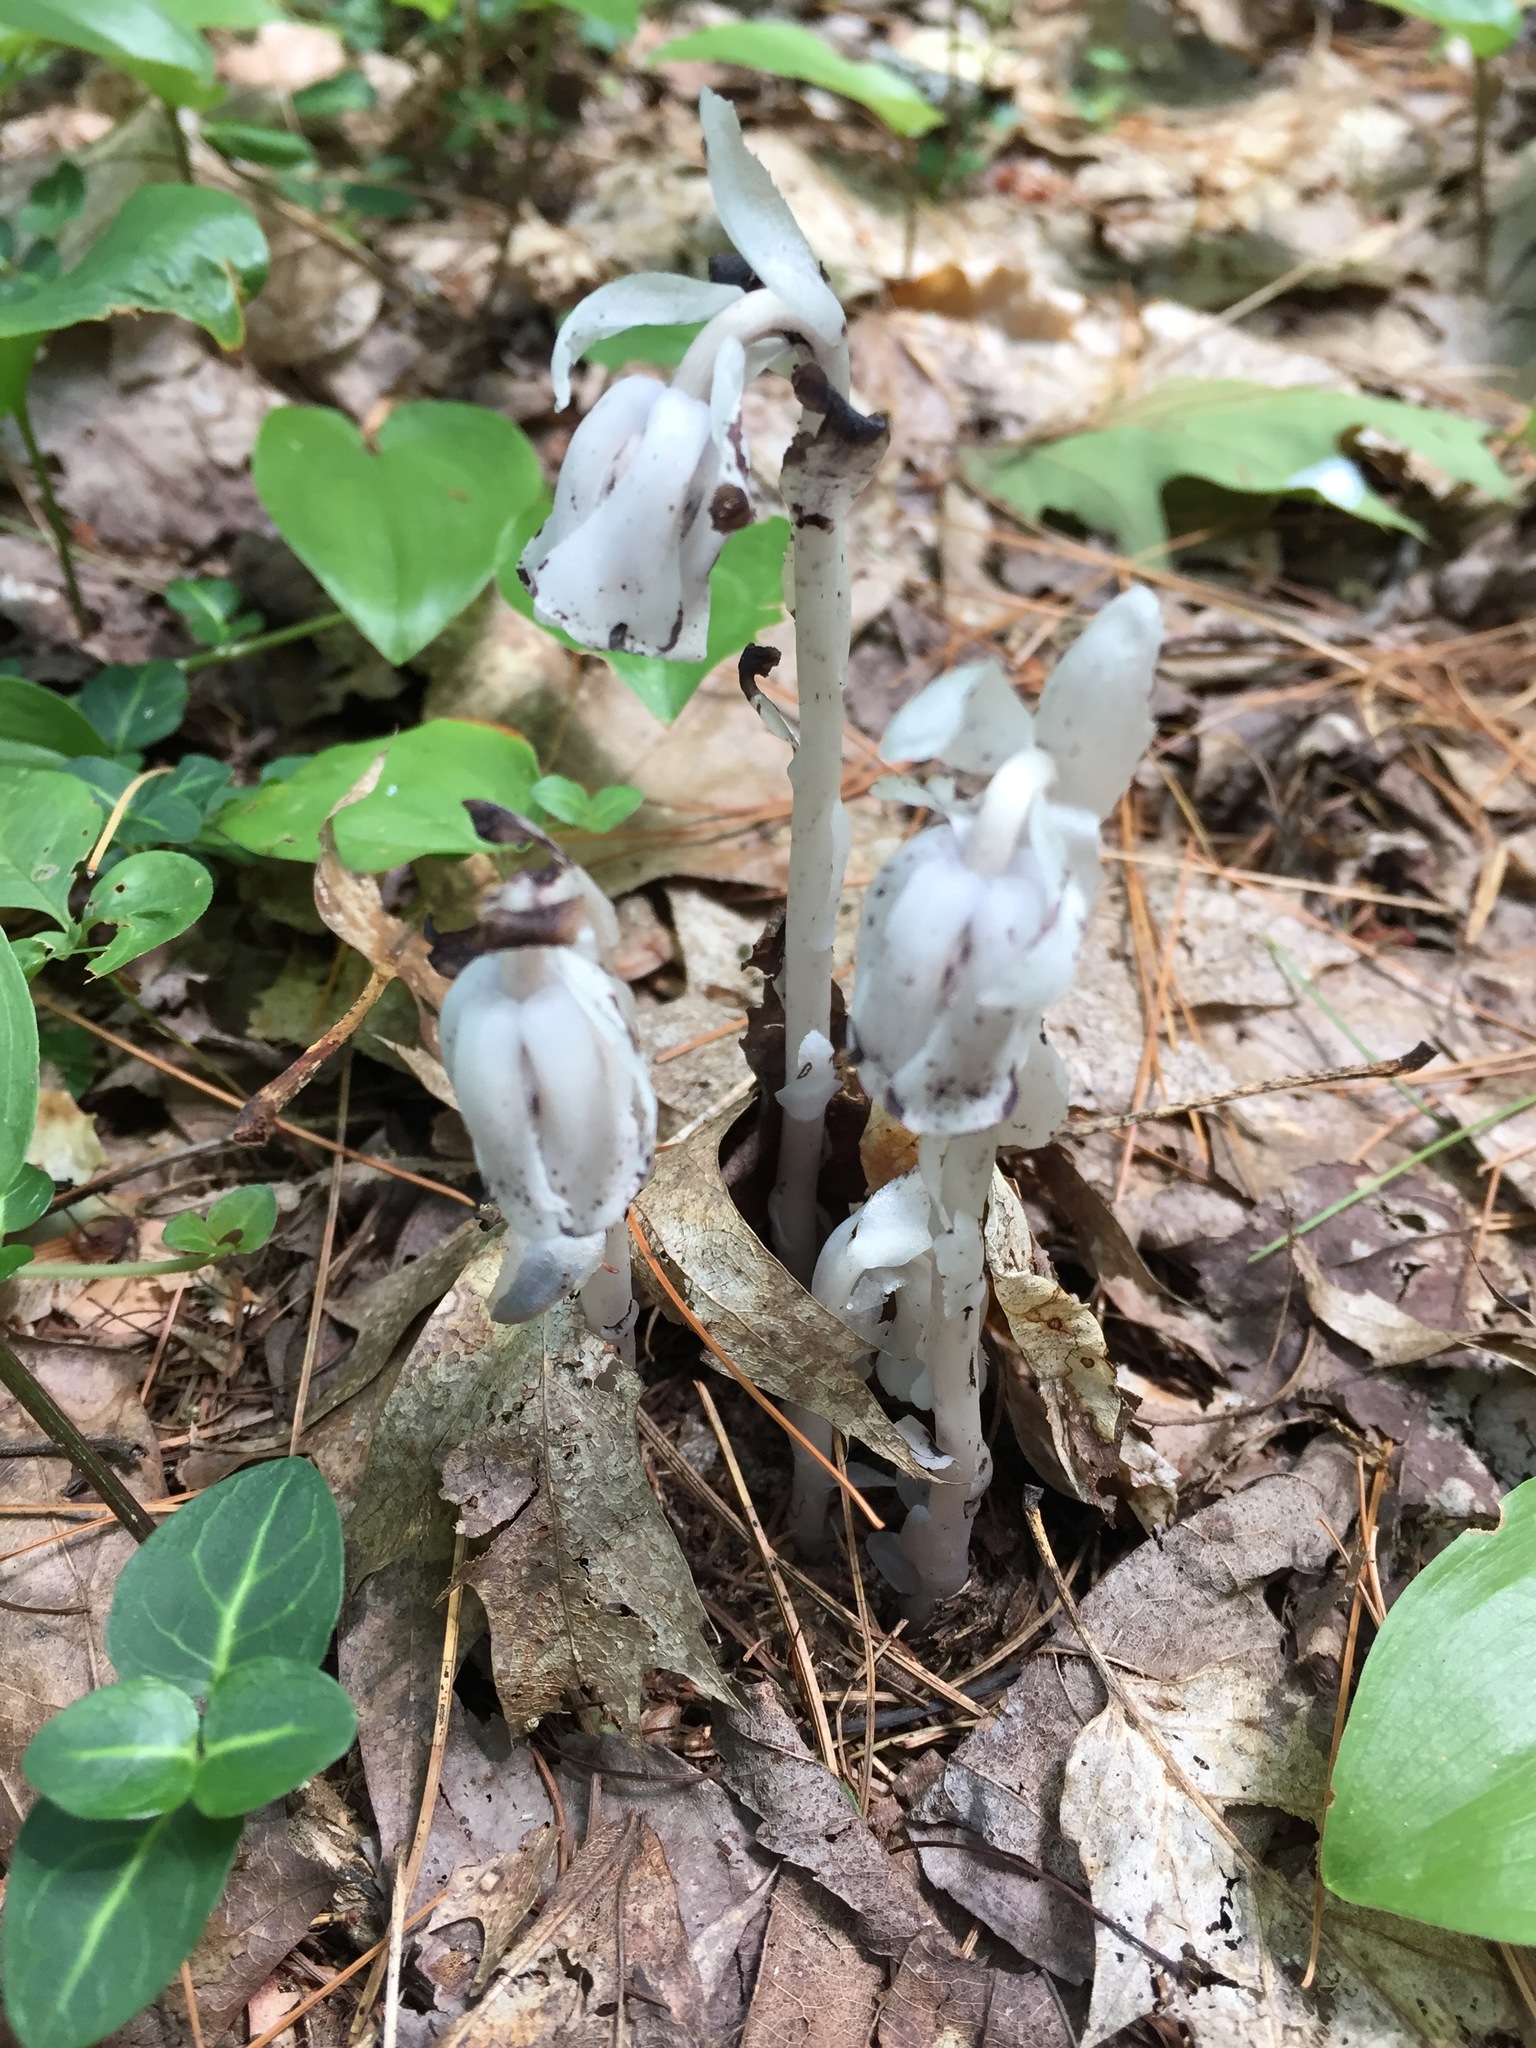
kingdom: Plantae
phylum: Tracheophyta
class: Magnoliopsida
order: Ericales
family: Ericaceae
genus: Monotropa
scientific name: Monotropa uniflora
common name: Convulsion root
